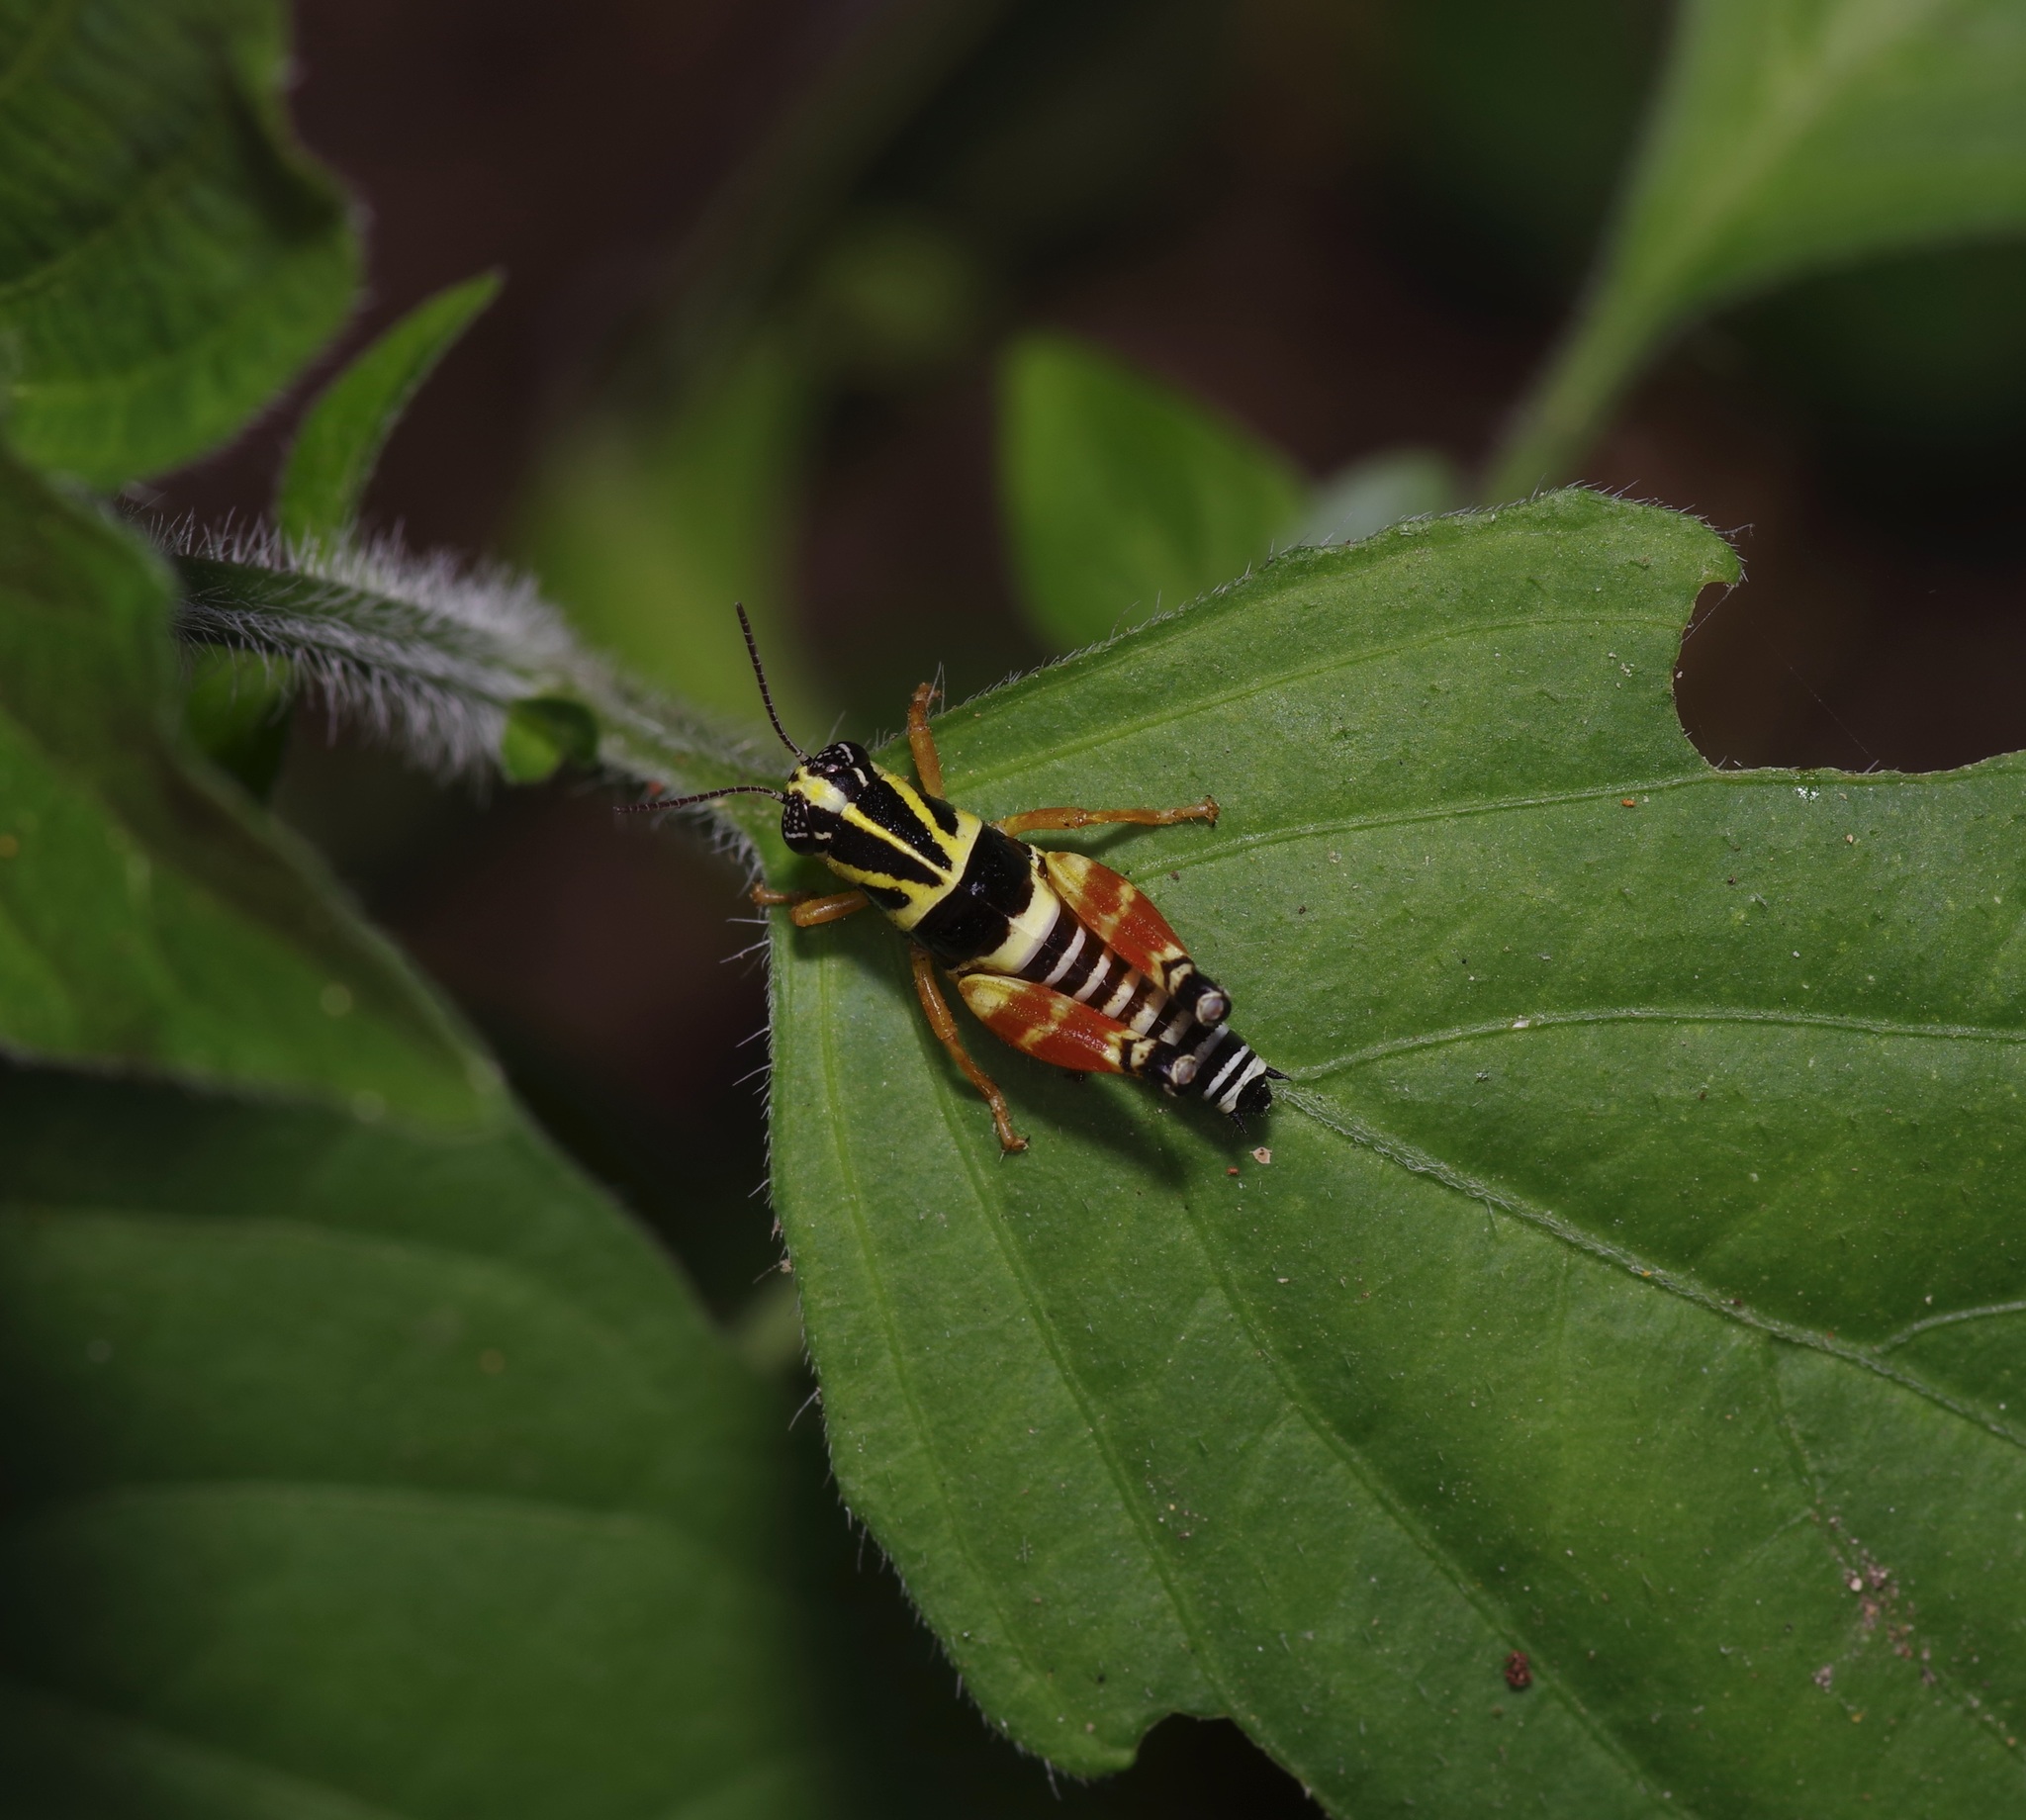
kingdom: Animalia
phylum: Arthropoda
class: Insecta
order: Orthoptera
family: Acrididae
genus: Aidemona
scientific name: Aidemona azteca
